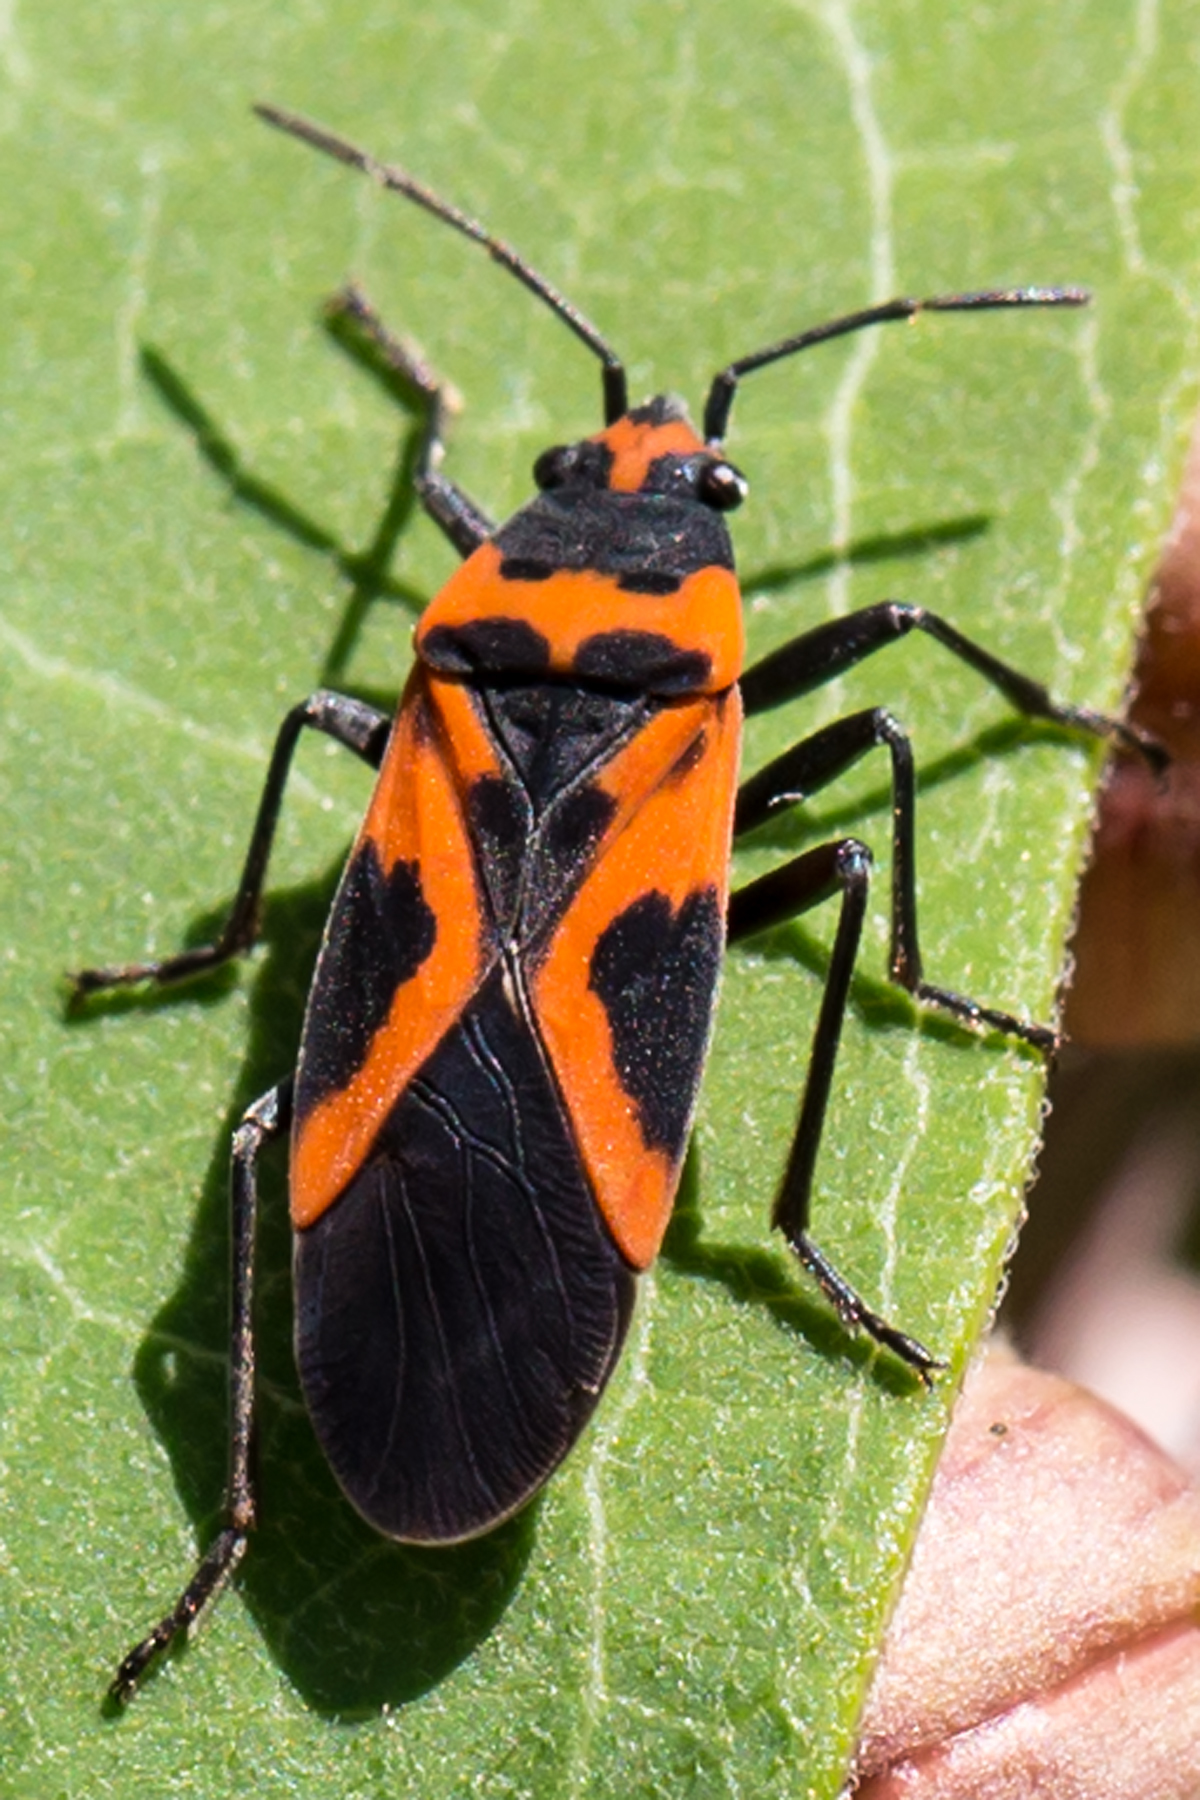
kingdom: Animalia
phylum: Arthropoda
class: Insecta
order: Hemiptera
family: Lygaeidae
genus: Lygaeus
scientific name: Lygaeus turcicus
